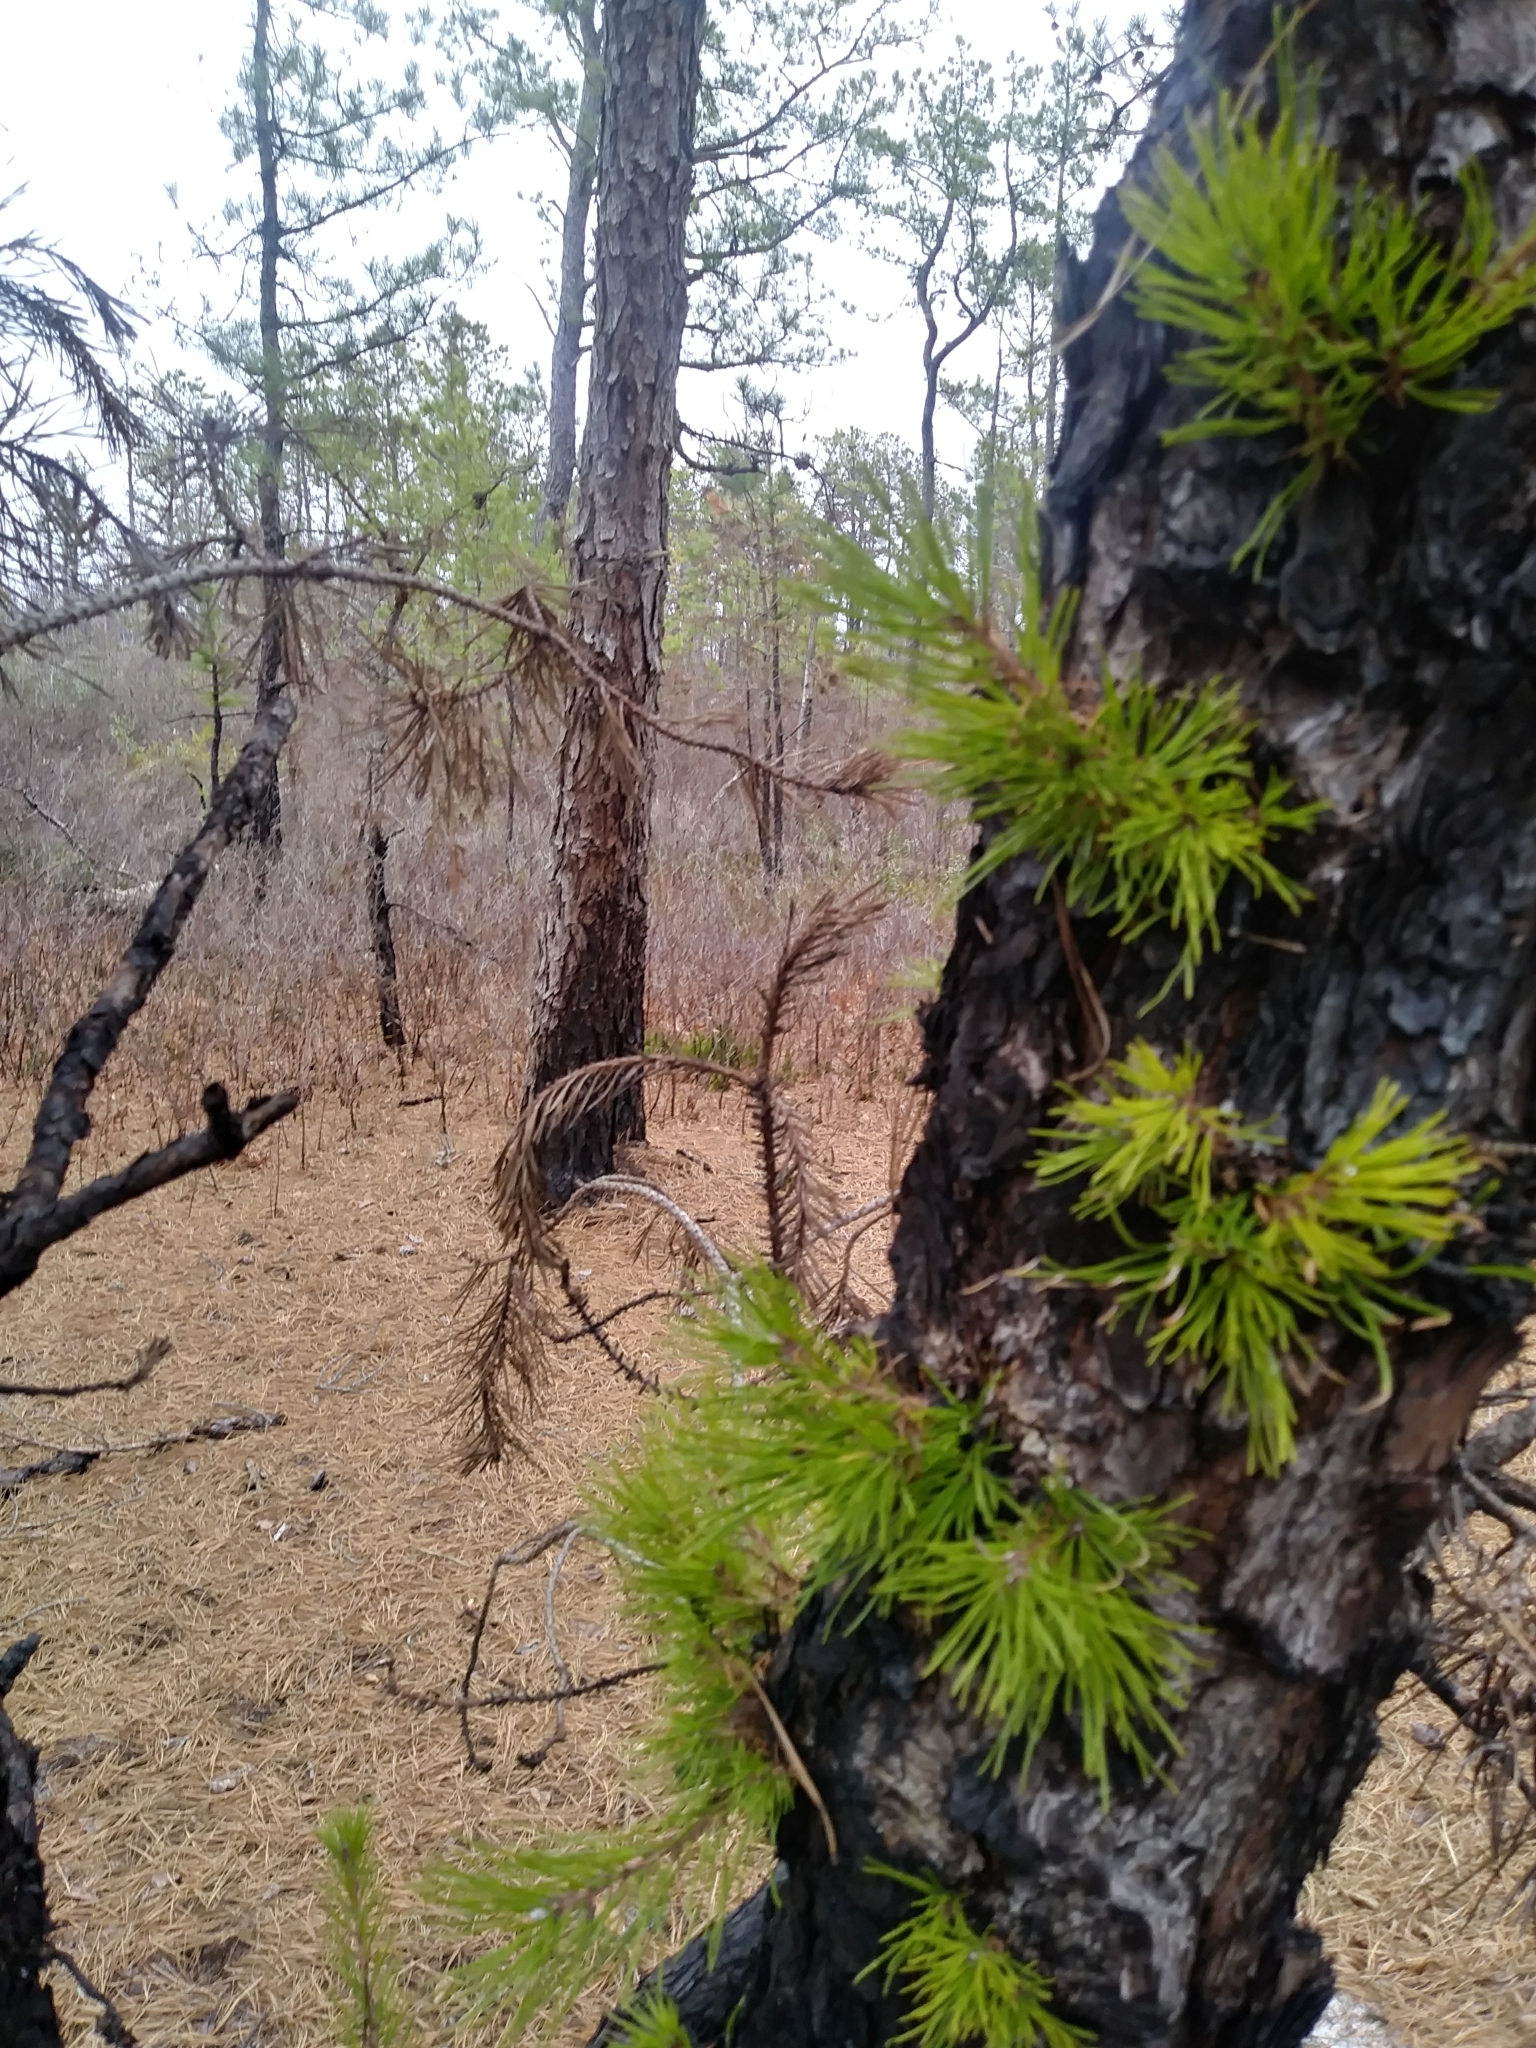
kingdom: Plantae
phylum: Tracheophyta
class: Pinopsida
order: Pinales
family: Pinaceae
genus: Pinus
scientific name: Pinus rigida
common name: Pitch pine
